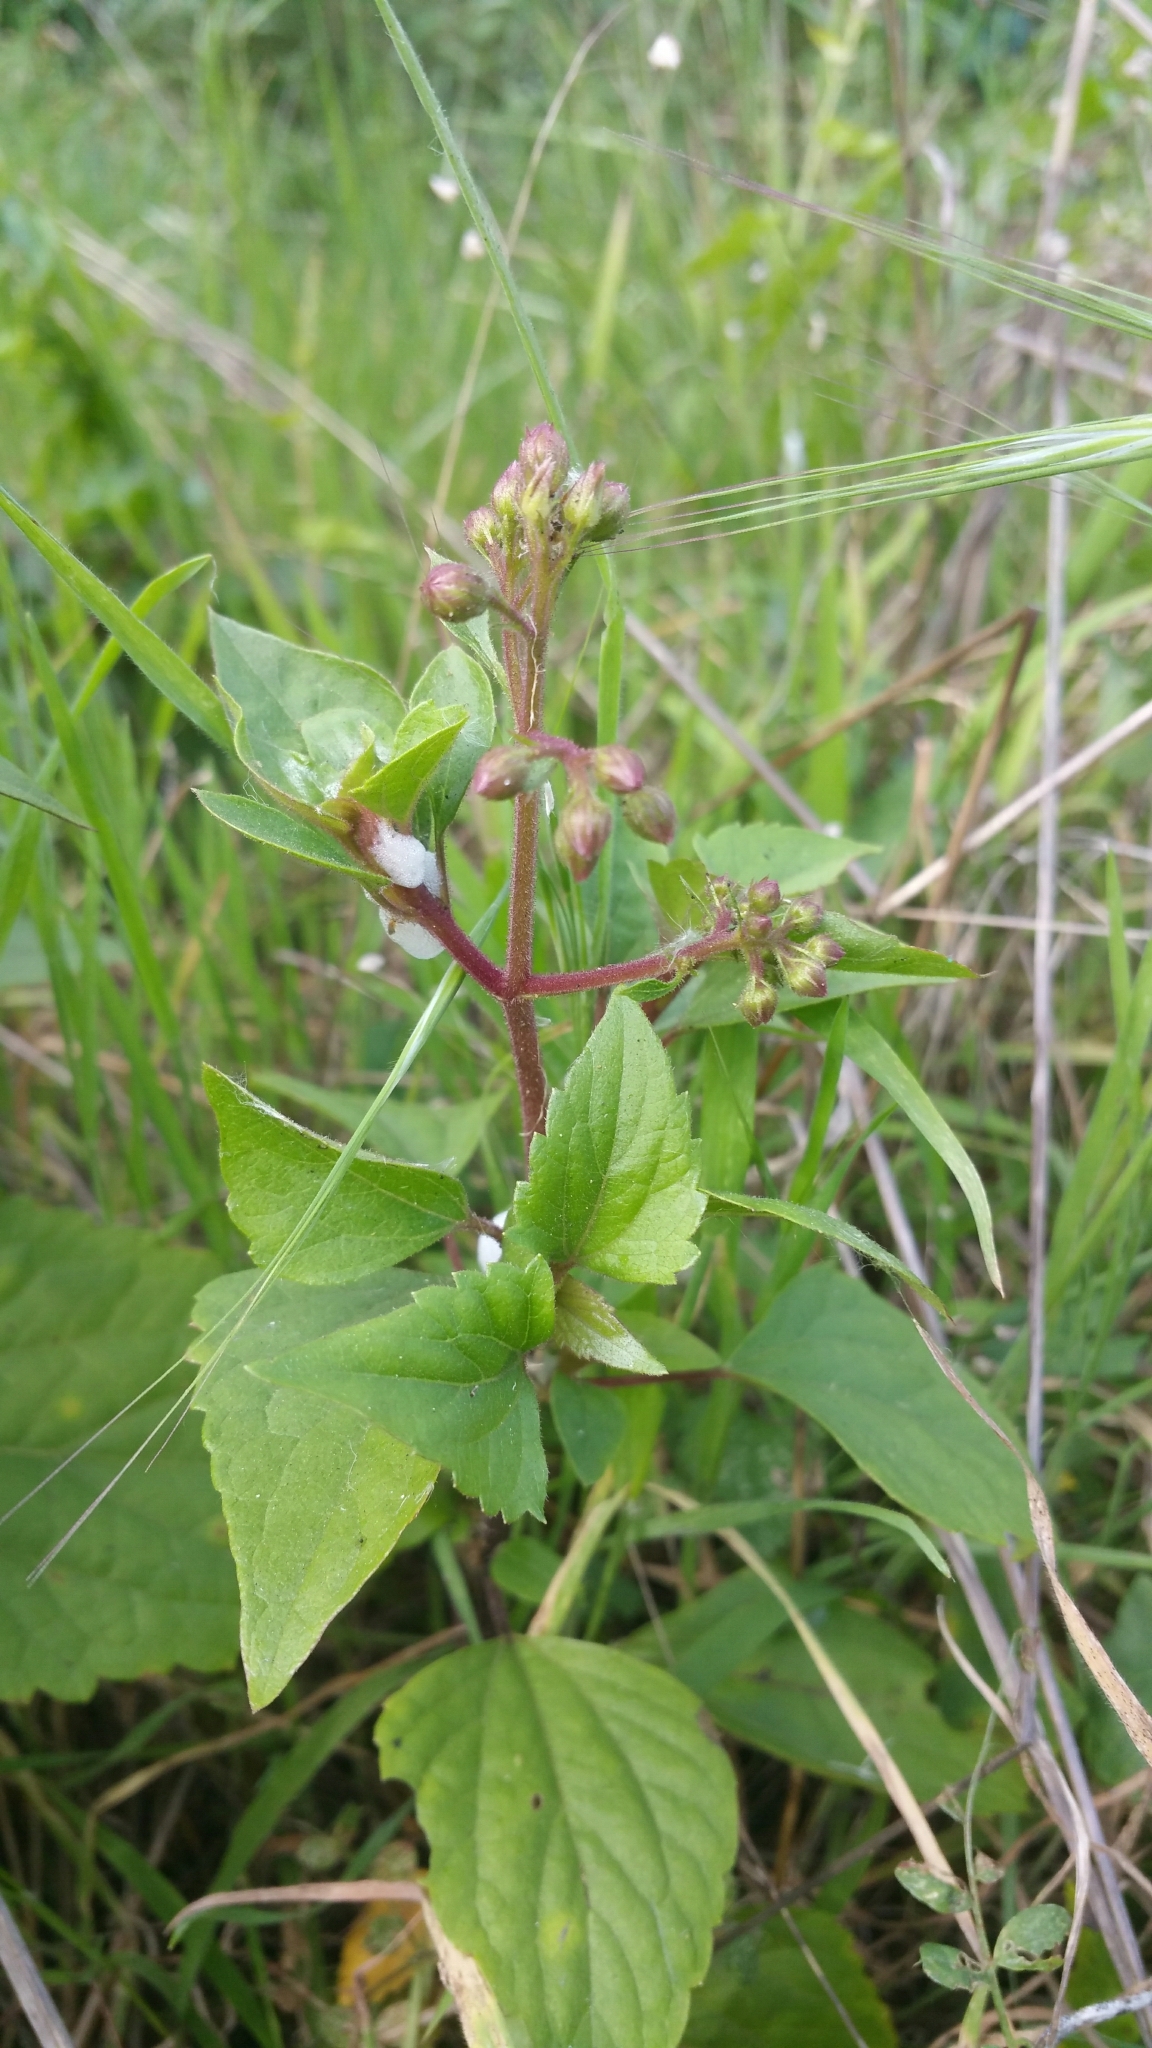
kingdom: Plantae
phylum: Tracheophyta
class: Magnoliopsida
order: Asterales
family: Asteraceae
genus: Ageratina
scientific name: Ageratina adenophora
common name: Sticky snakeroot
